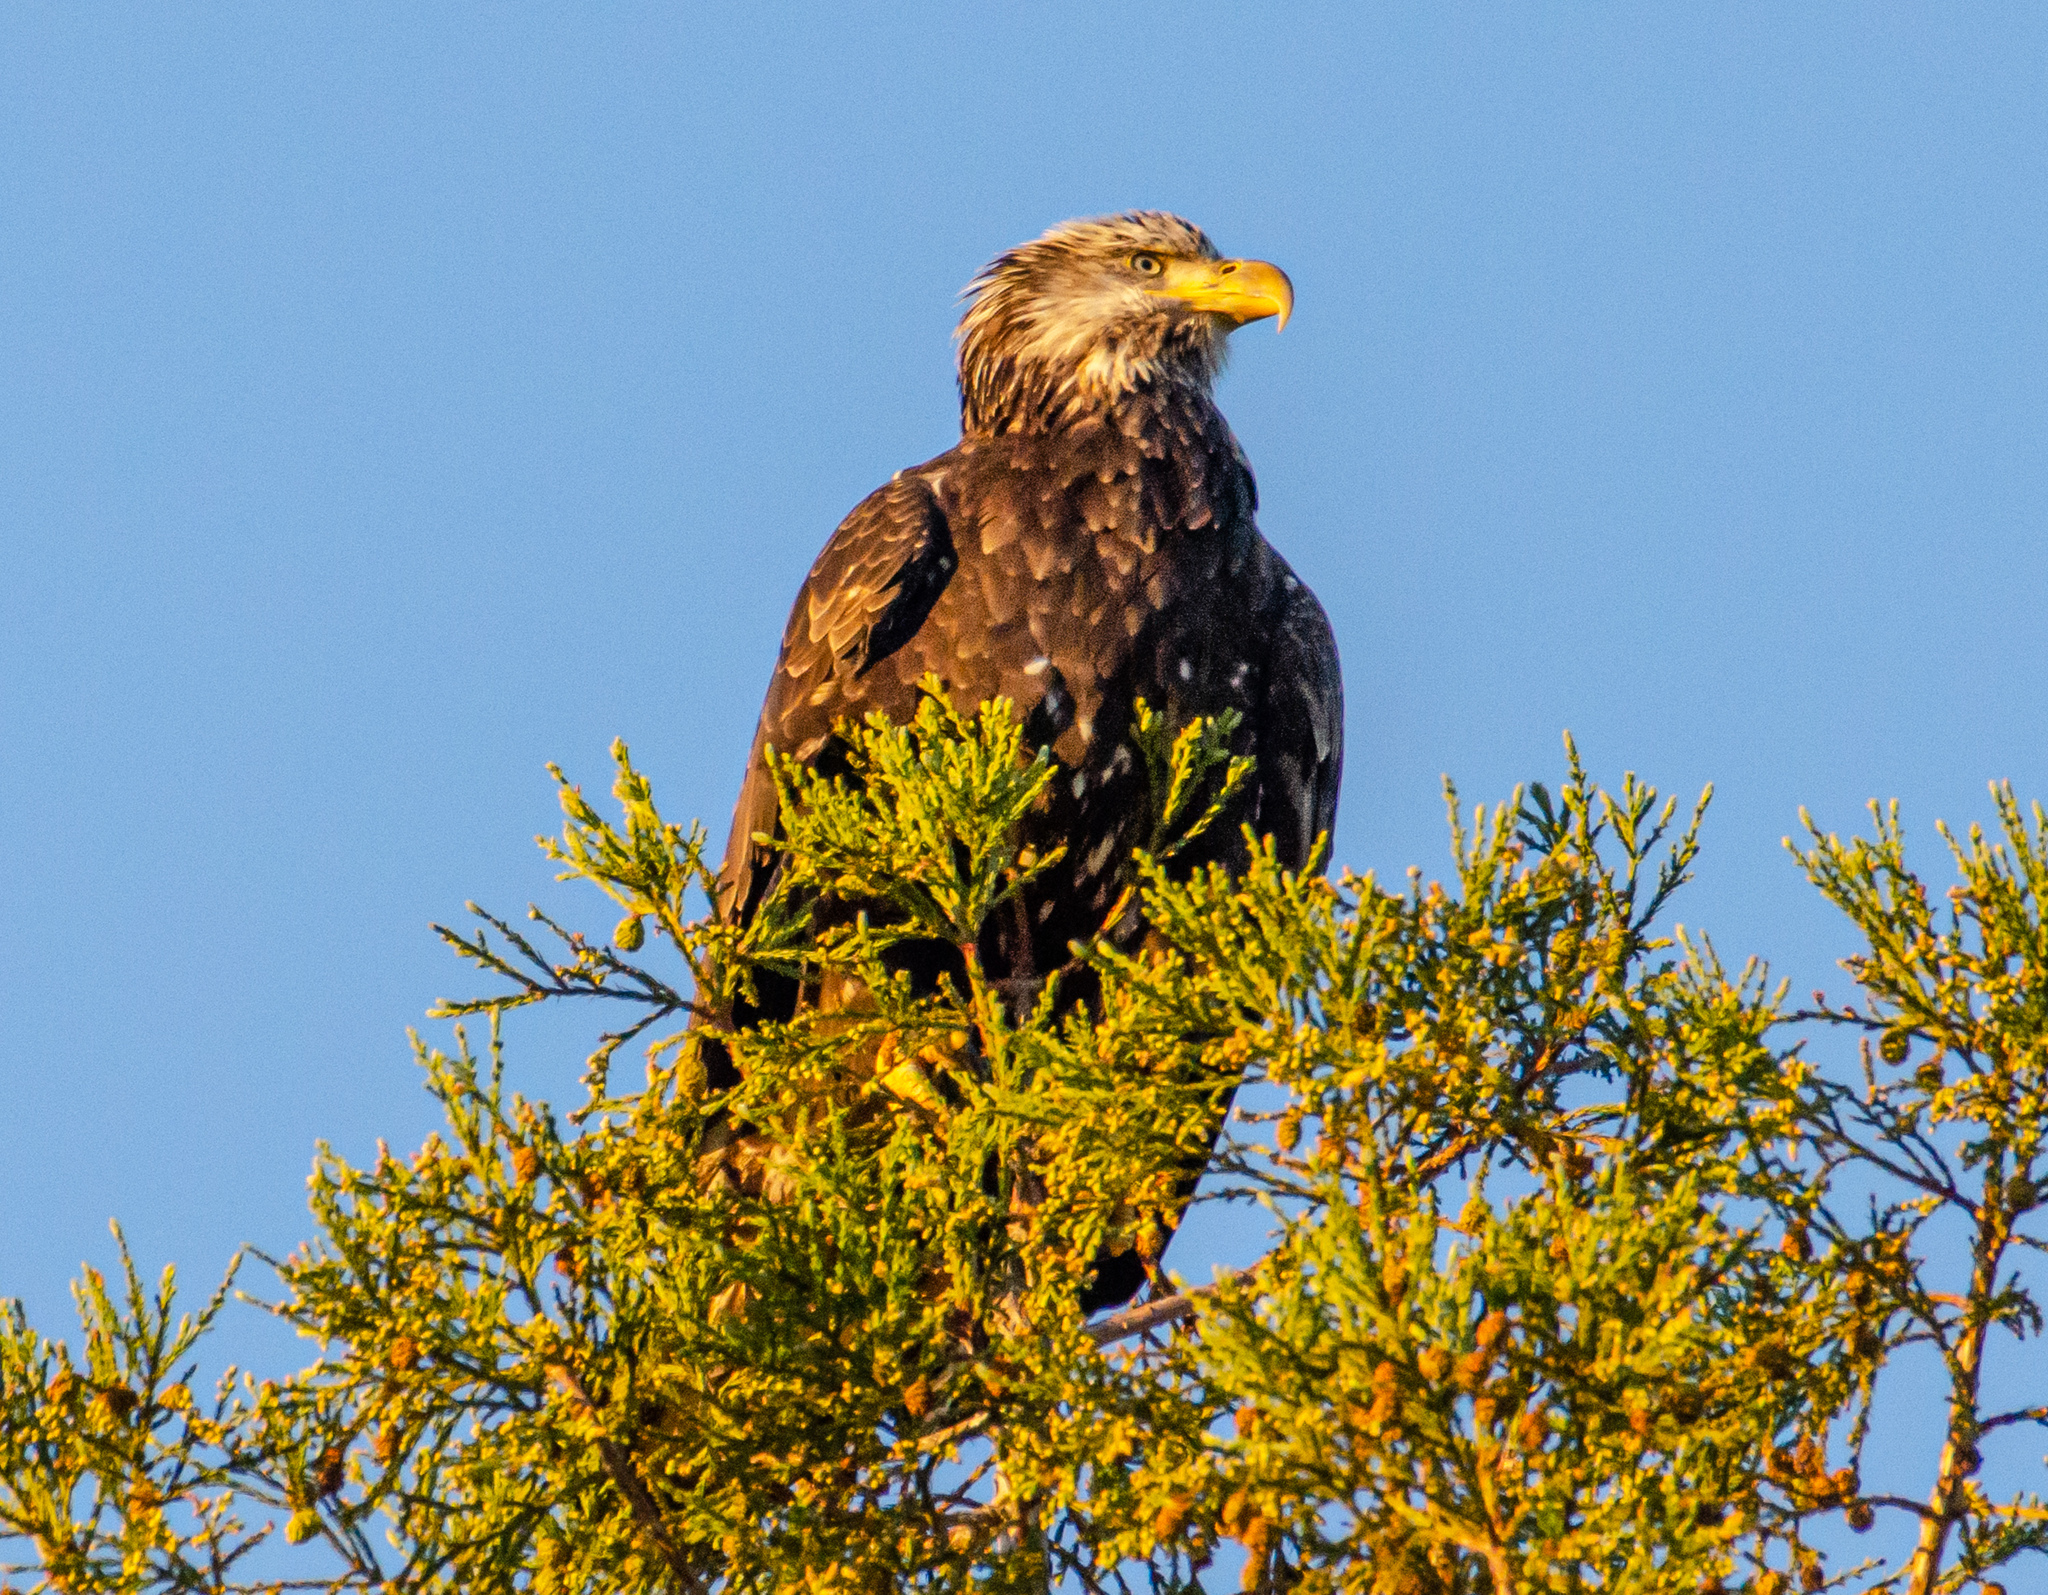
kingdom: Animalia
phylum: Chordata
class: Aves
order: Accipitriformes
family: Accipitridae
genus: Haliaeetus
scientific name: Haliaeetus leucocephalus
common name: Bald eagle
